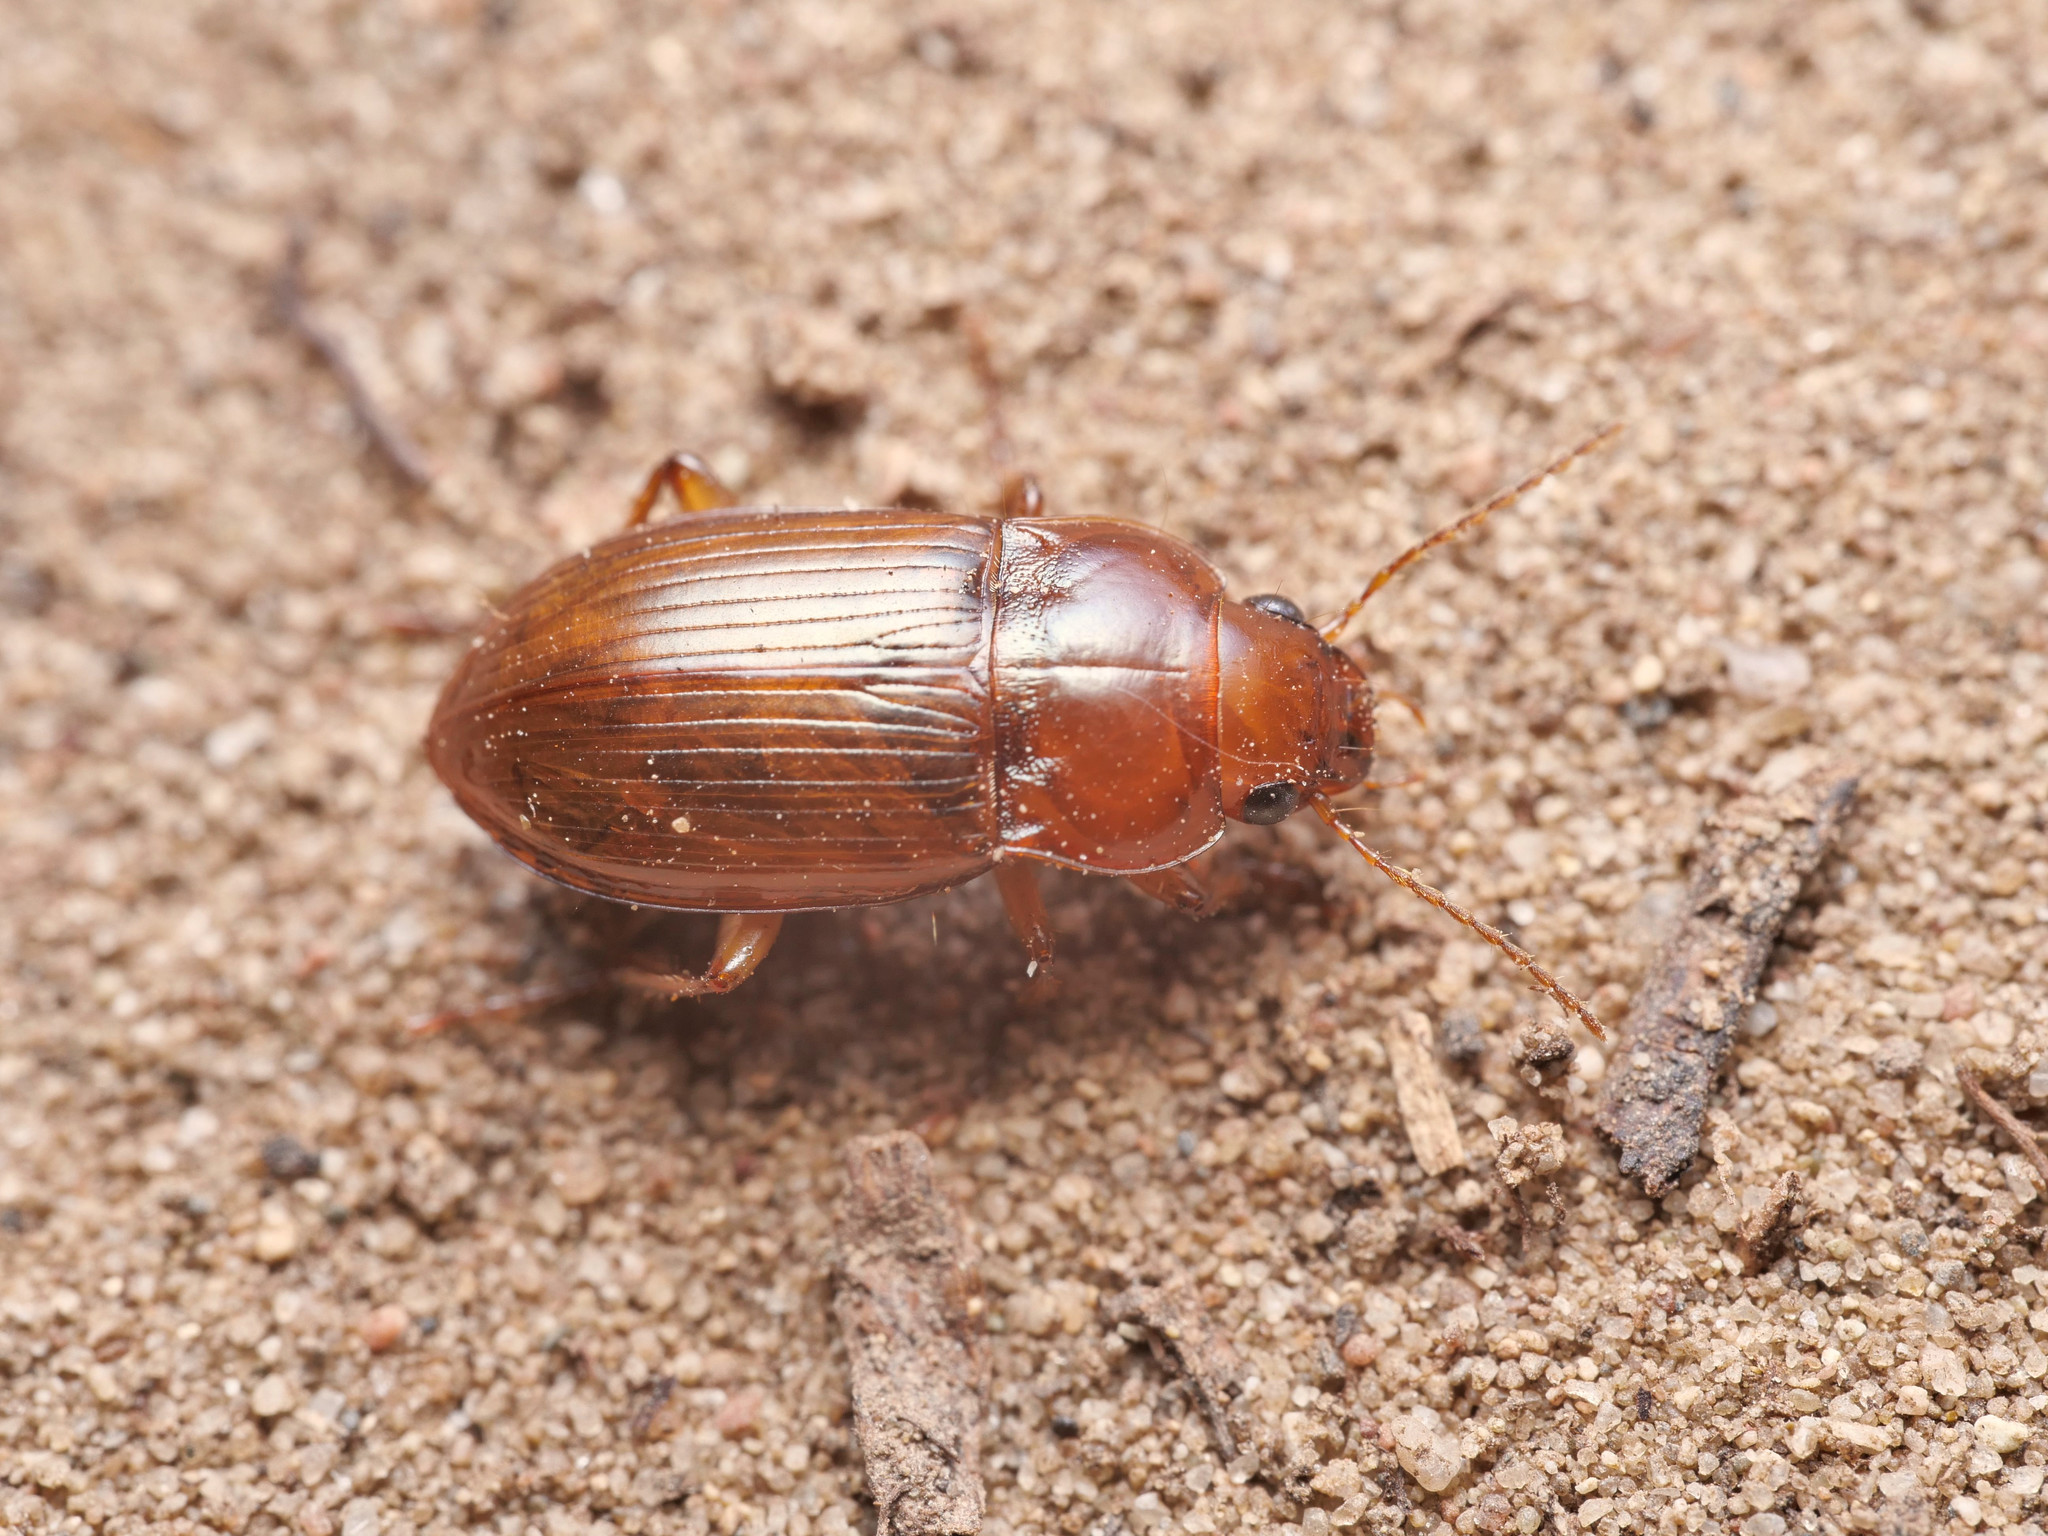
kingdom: Animalia
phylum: Arthropoda
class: Insecta
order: Coleoptera
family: Carabidae
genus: Amara
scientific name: Amara fulva
